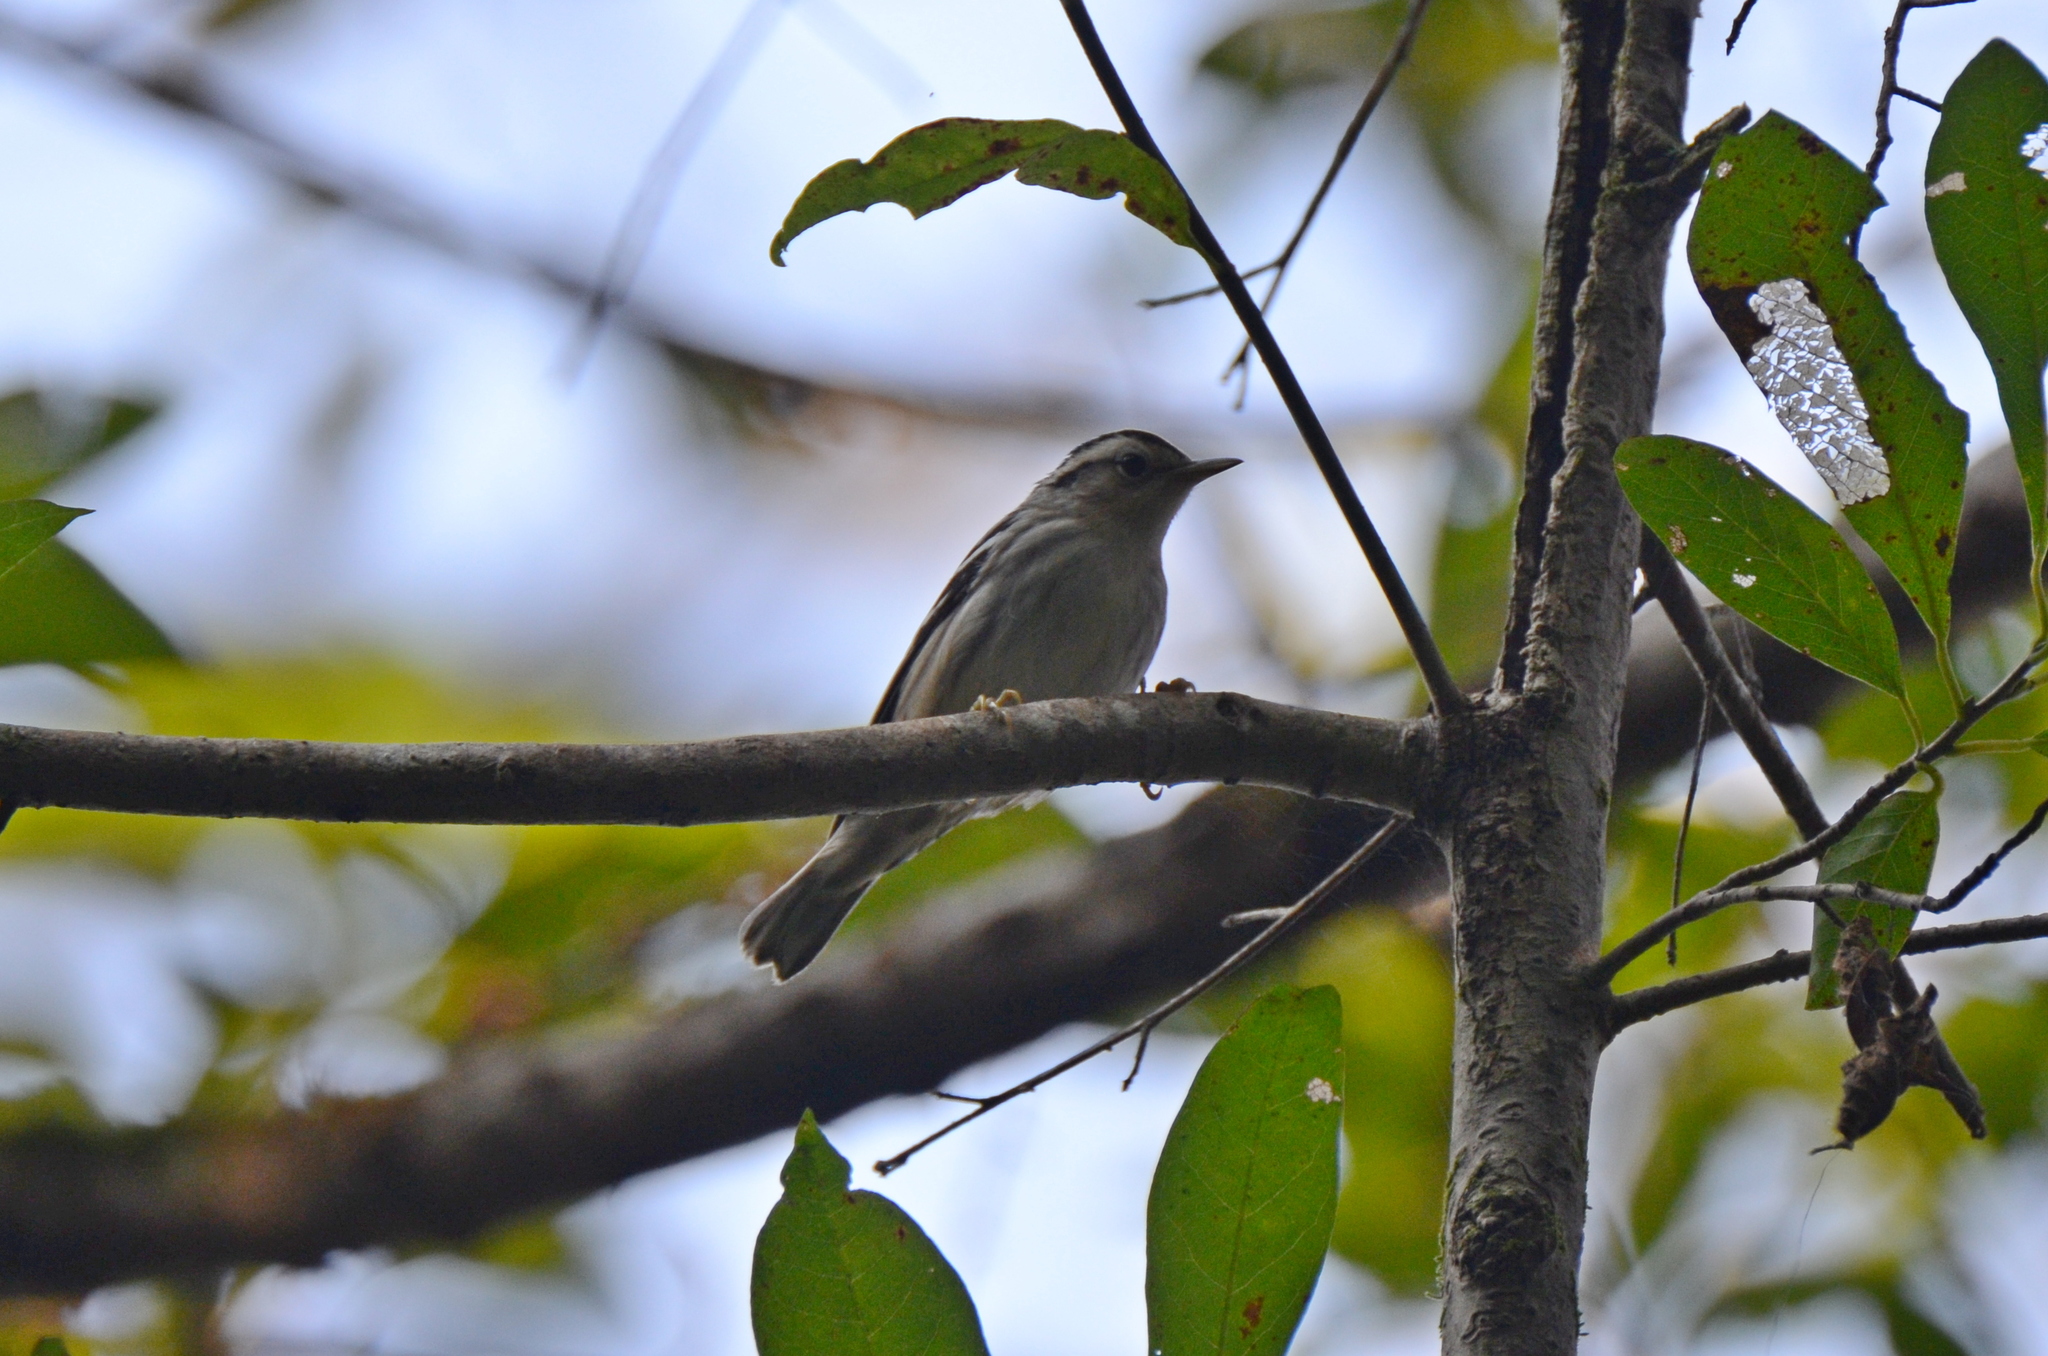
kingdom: Animalia
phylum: Chordata
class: Aves
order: Passeriformes
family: Parulidae
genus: Mniotilta
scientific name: Mniotilta varia
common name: Black-and-white warbler
